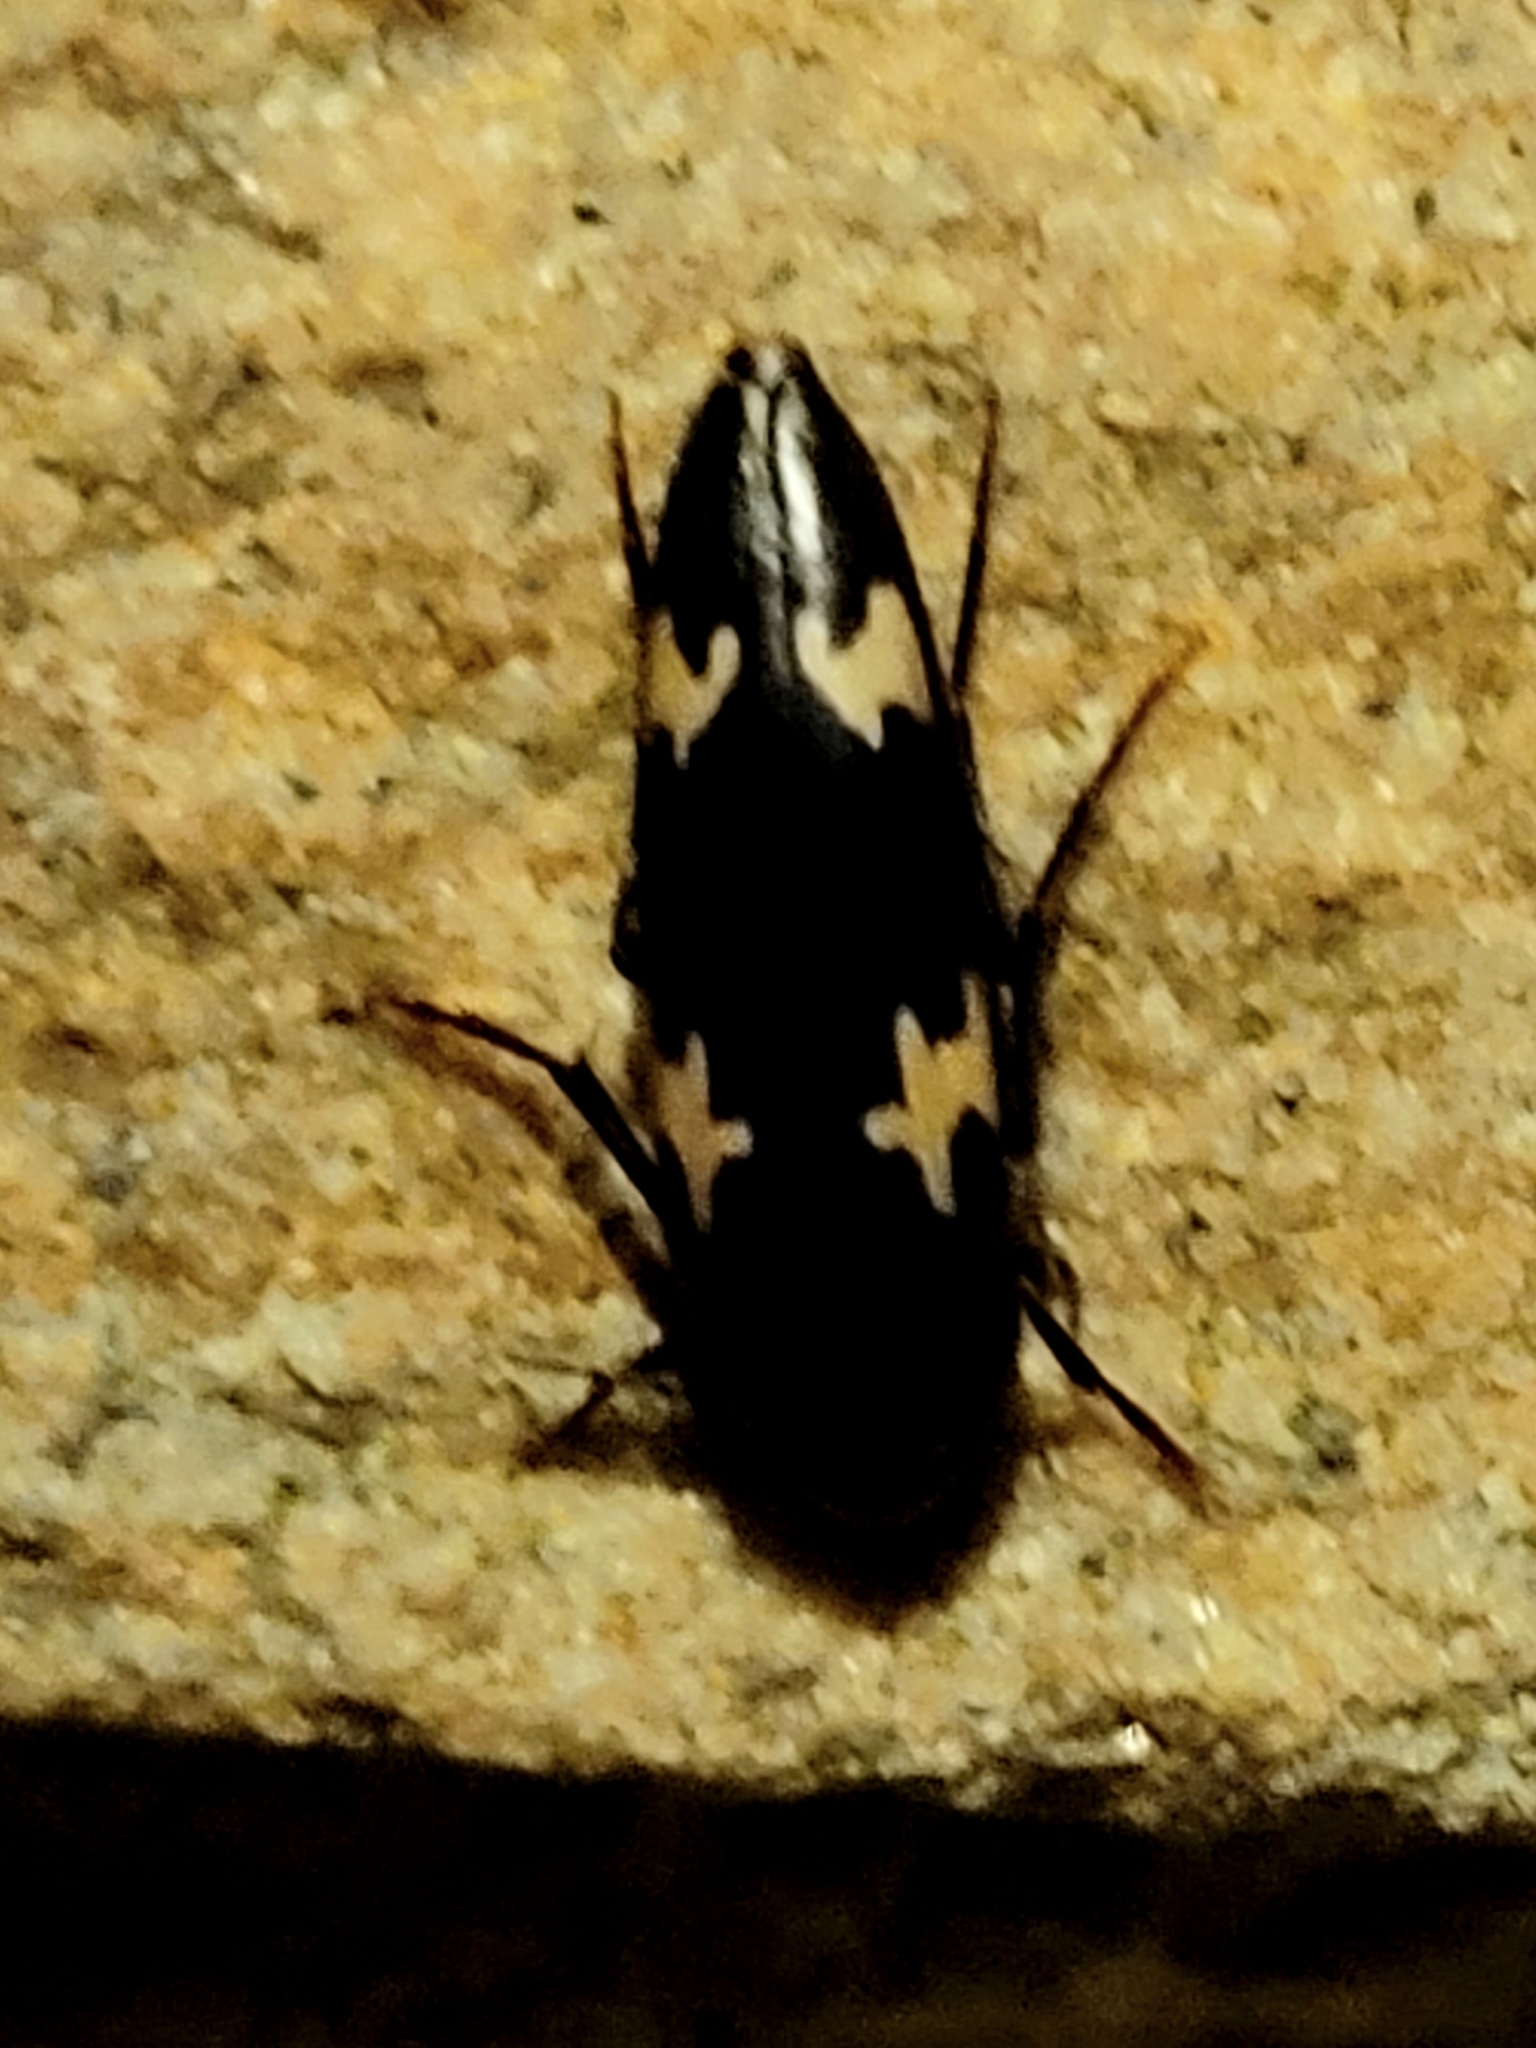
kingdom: Animalia
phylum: Arthropoda
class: Insecta
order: Coleoptera
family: Melandryidae
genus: Dircaea
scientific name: Dircaea liturata
